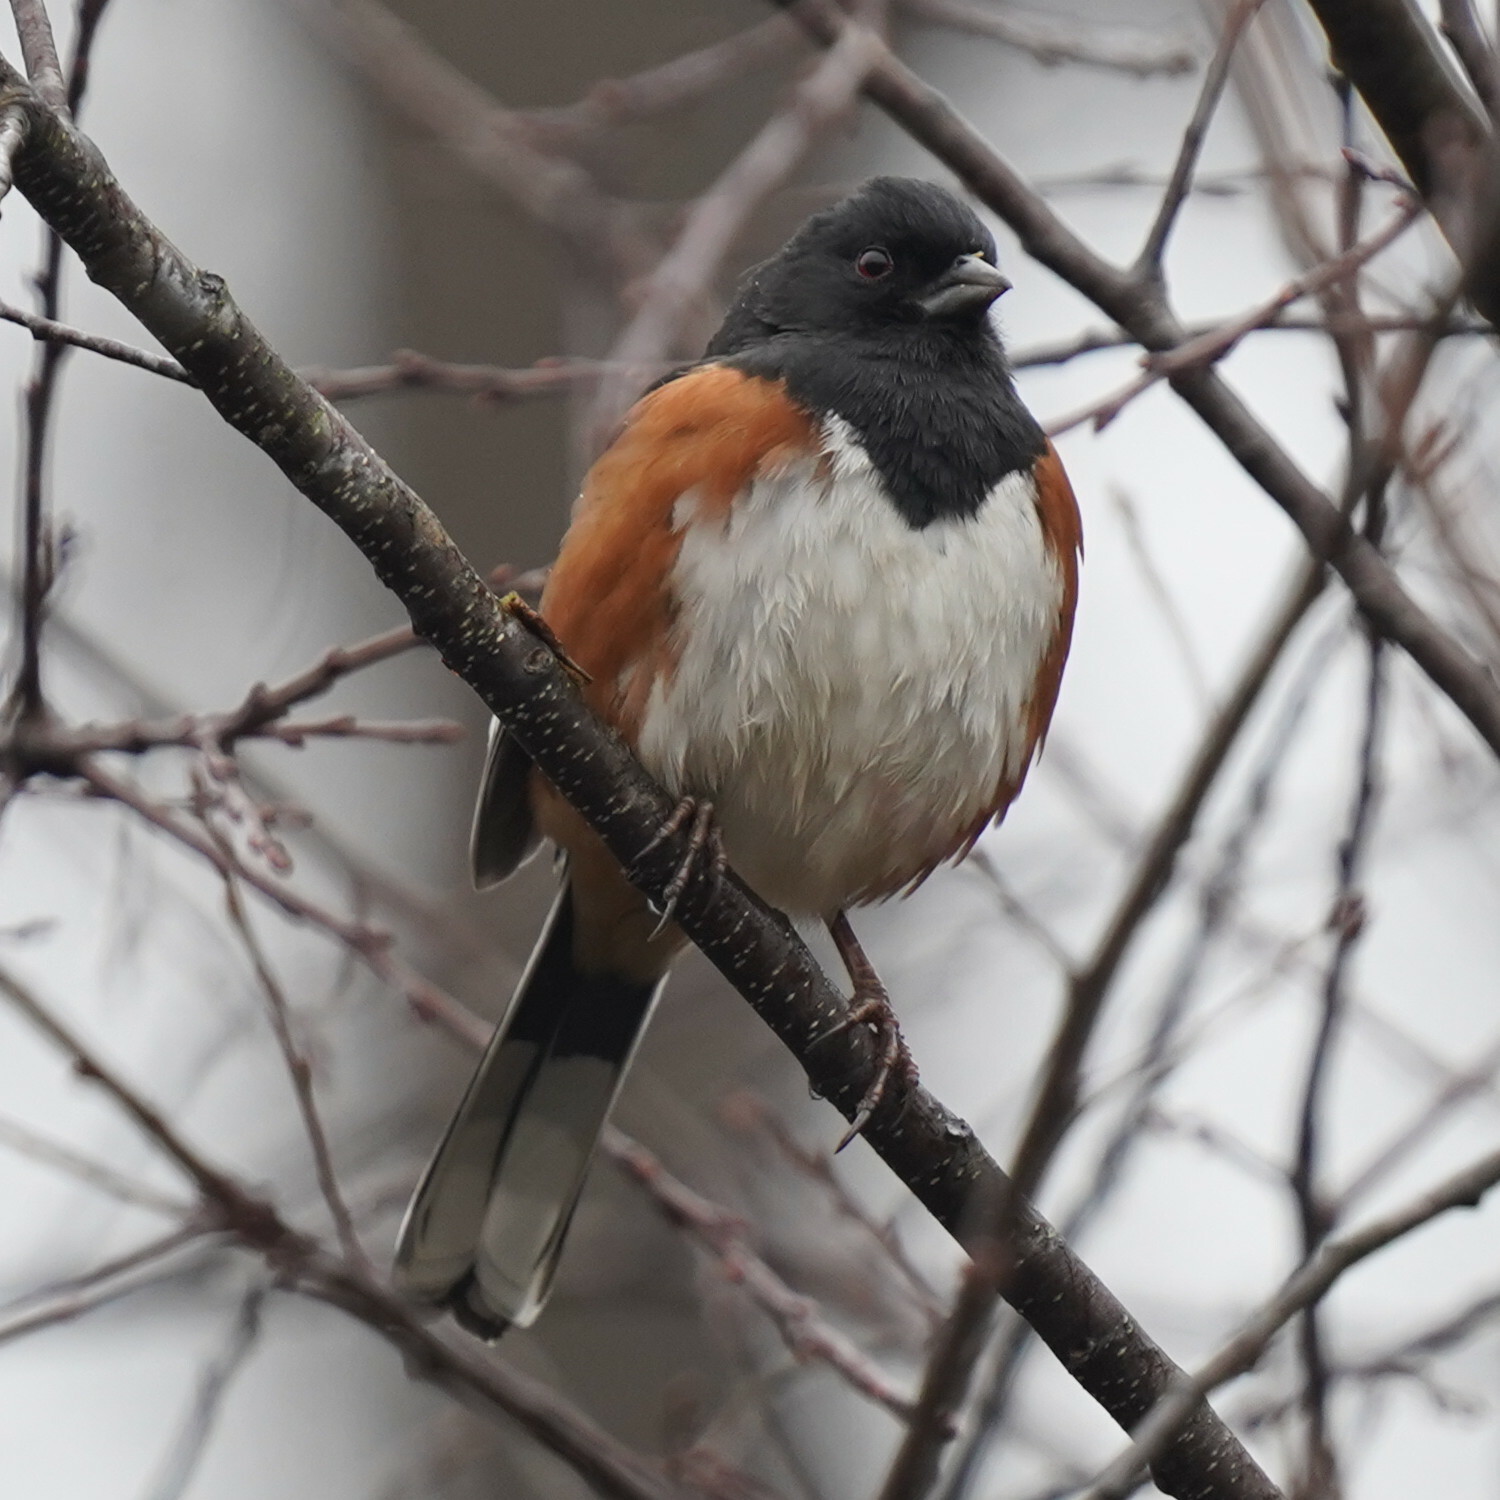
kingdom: Animalia
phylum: Chordata
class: Aves
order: Passeriformes
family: Passerellidae
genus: Pipilo
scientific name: Pipilo erythrophthalmus
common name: Eastern towhee
